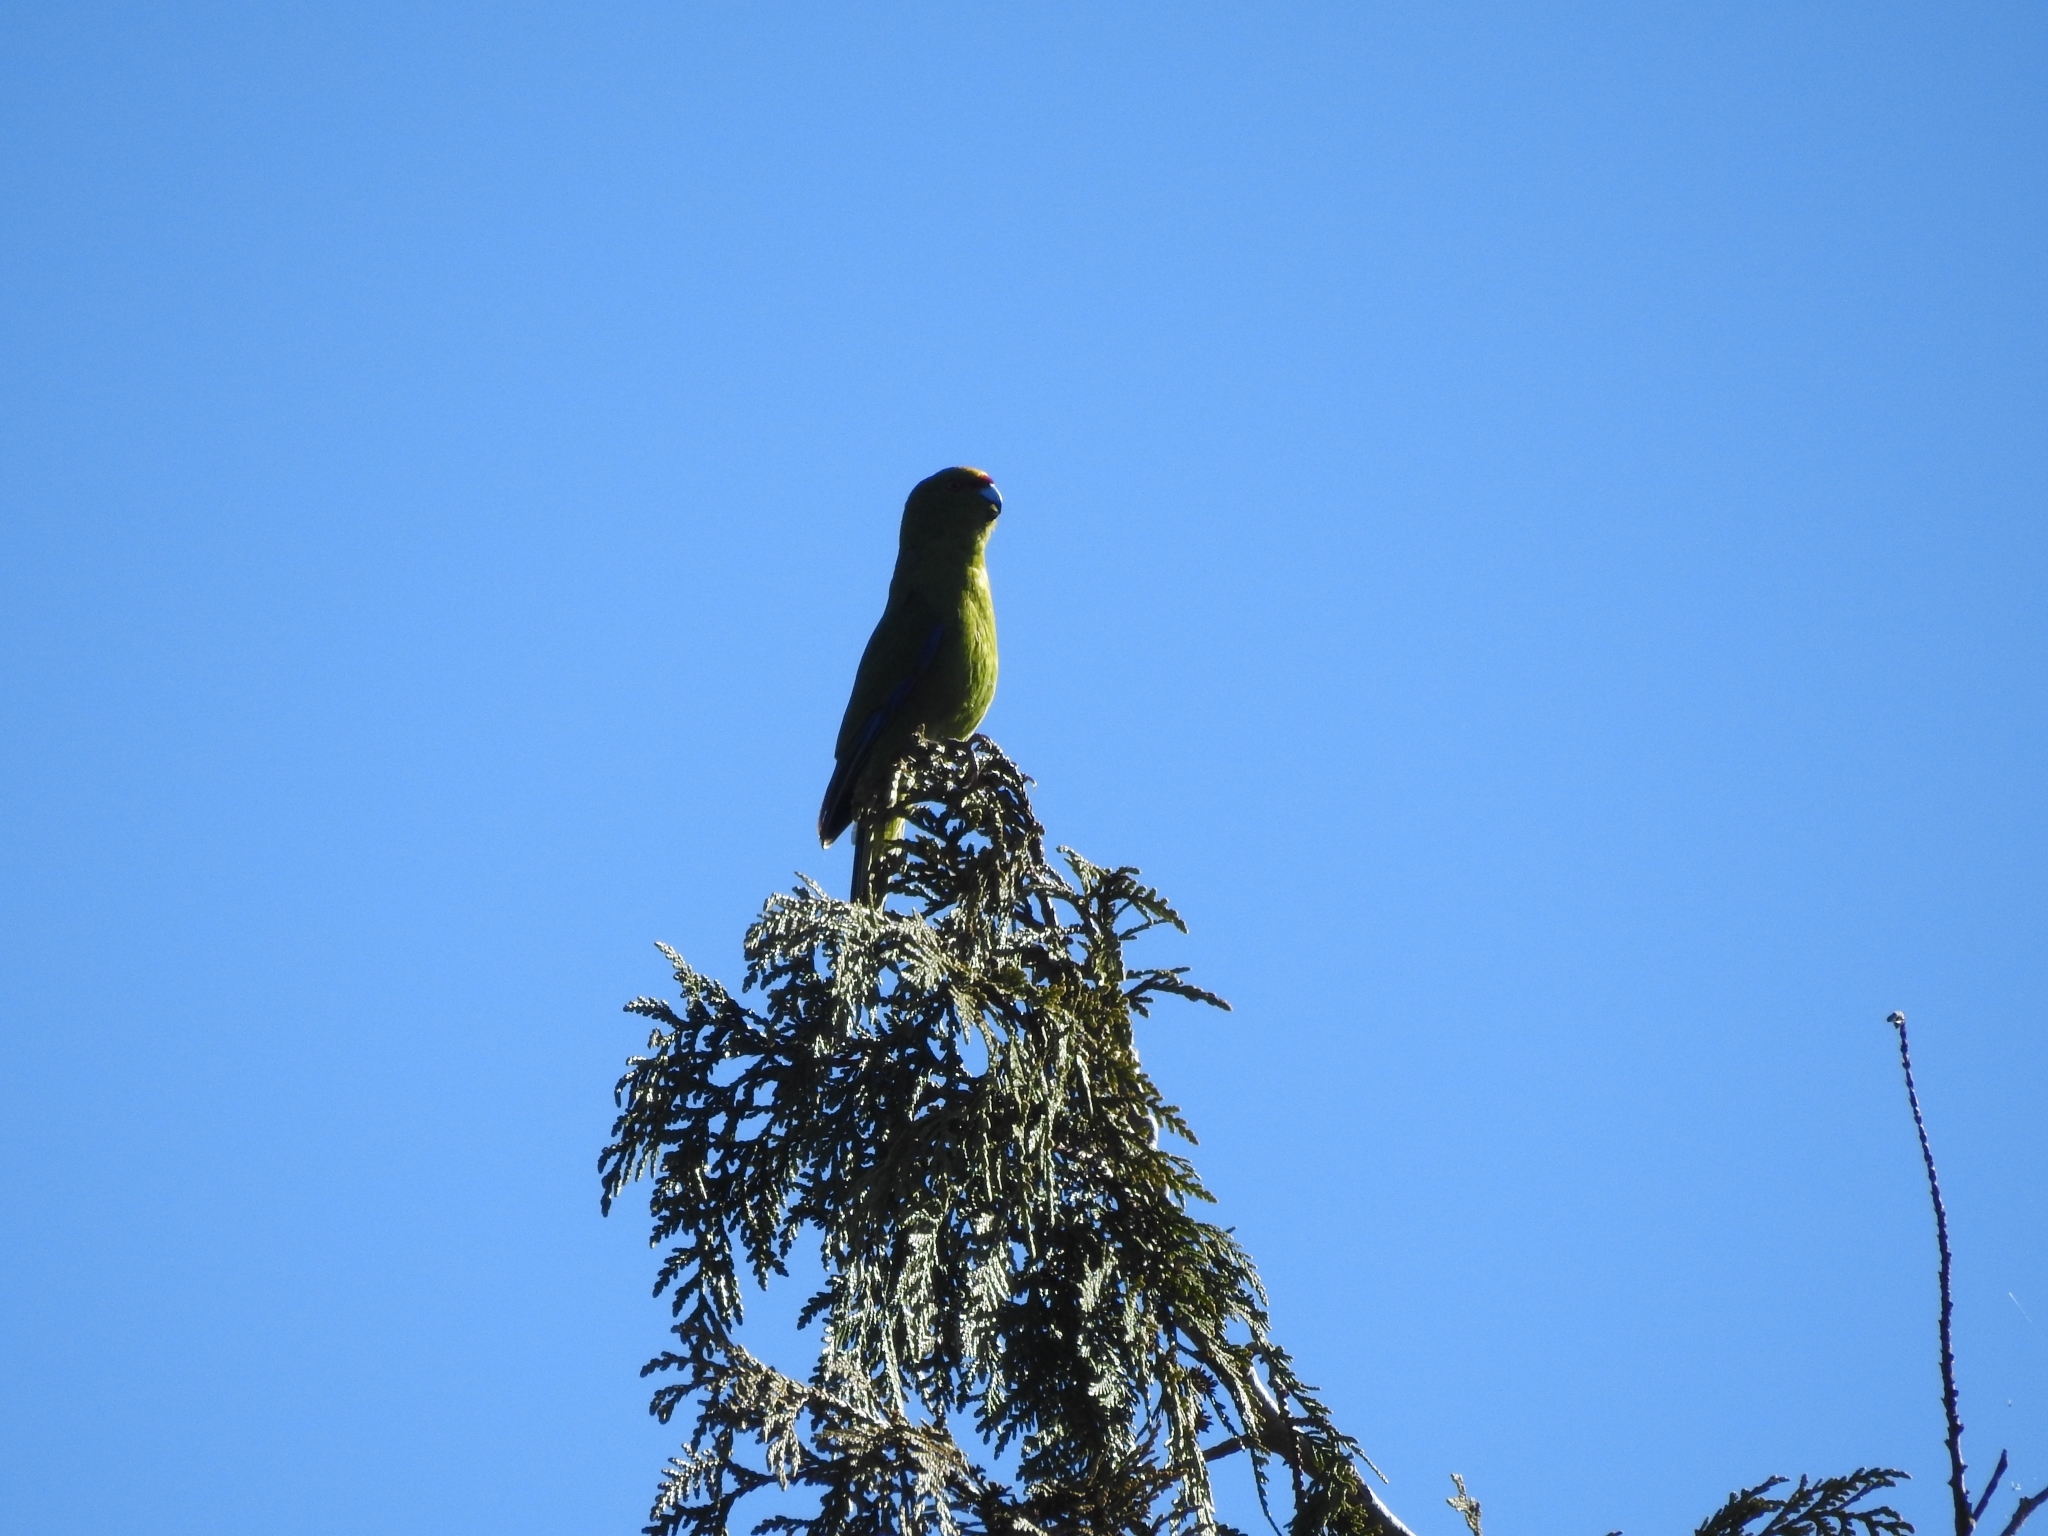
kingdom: Animalia
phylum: Chordata
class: Aves
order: Psittaciformes
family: Psittacidae
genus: Cyanoramphus
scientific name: Cyanoramphus auriceps
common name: Yellow-crowned parakeet
